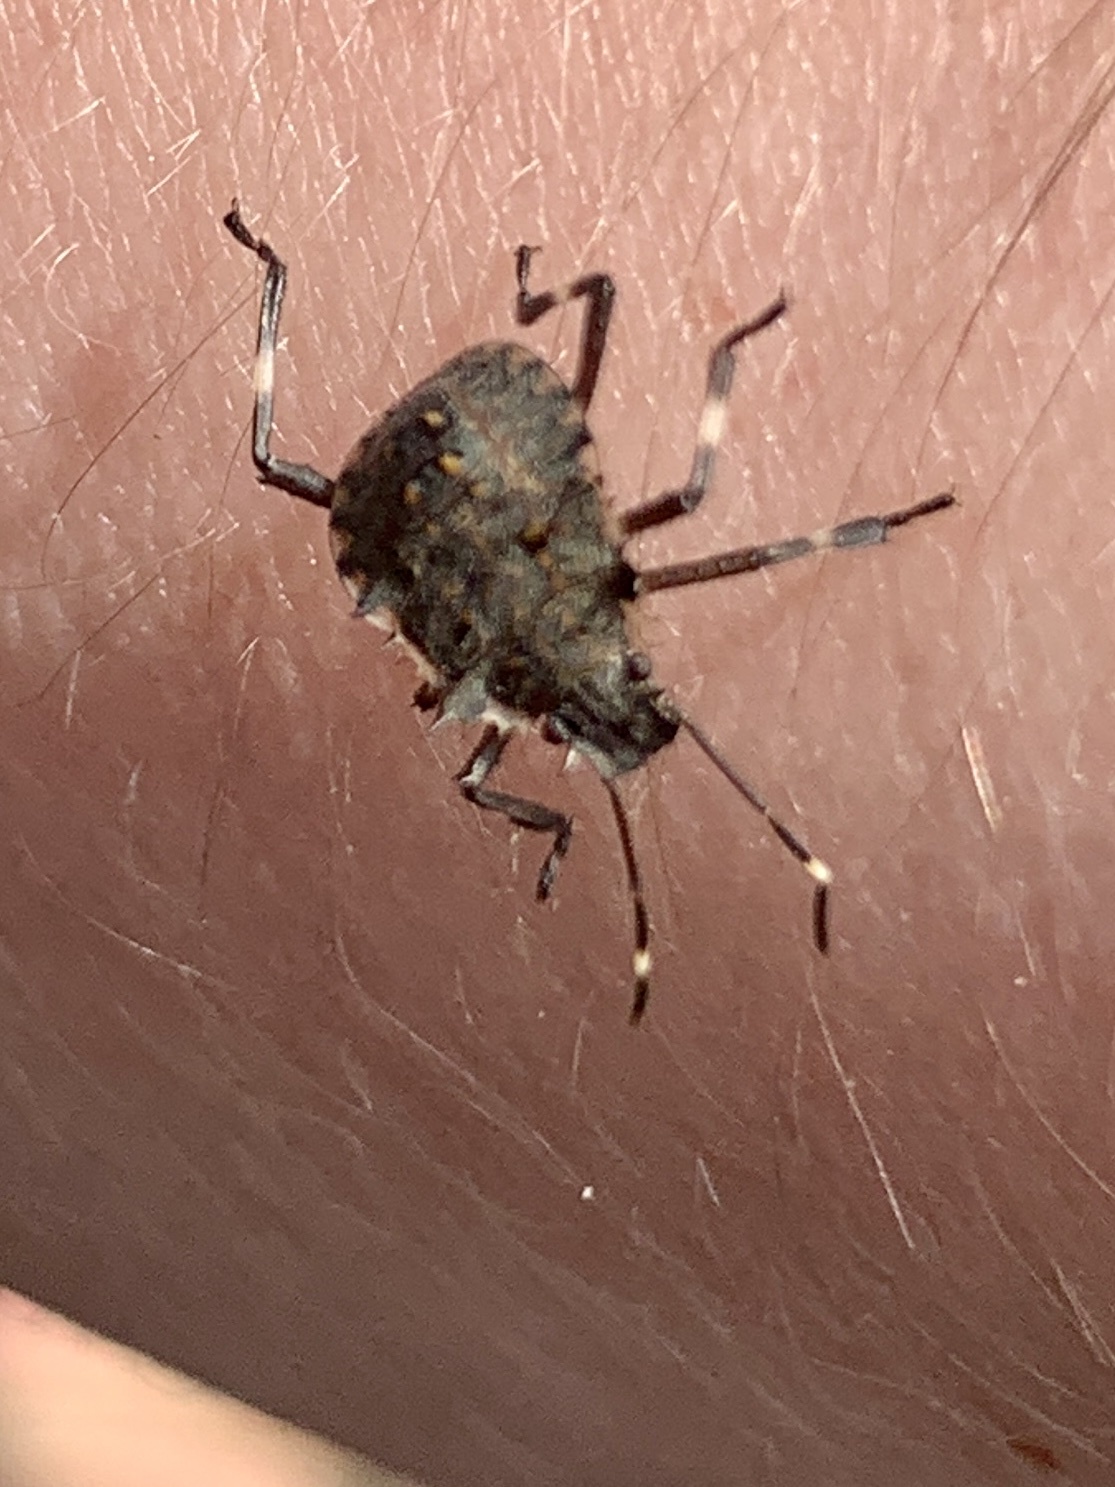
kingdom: Animalia
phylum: Arthropoda
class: Insecta
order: Hemiptera
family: Pentatomidae
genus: Halyomorpha
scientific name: Halyomorpha halys
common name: Brown marmorated stink bug
